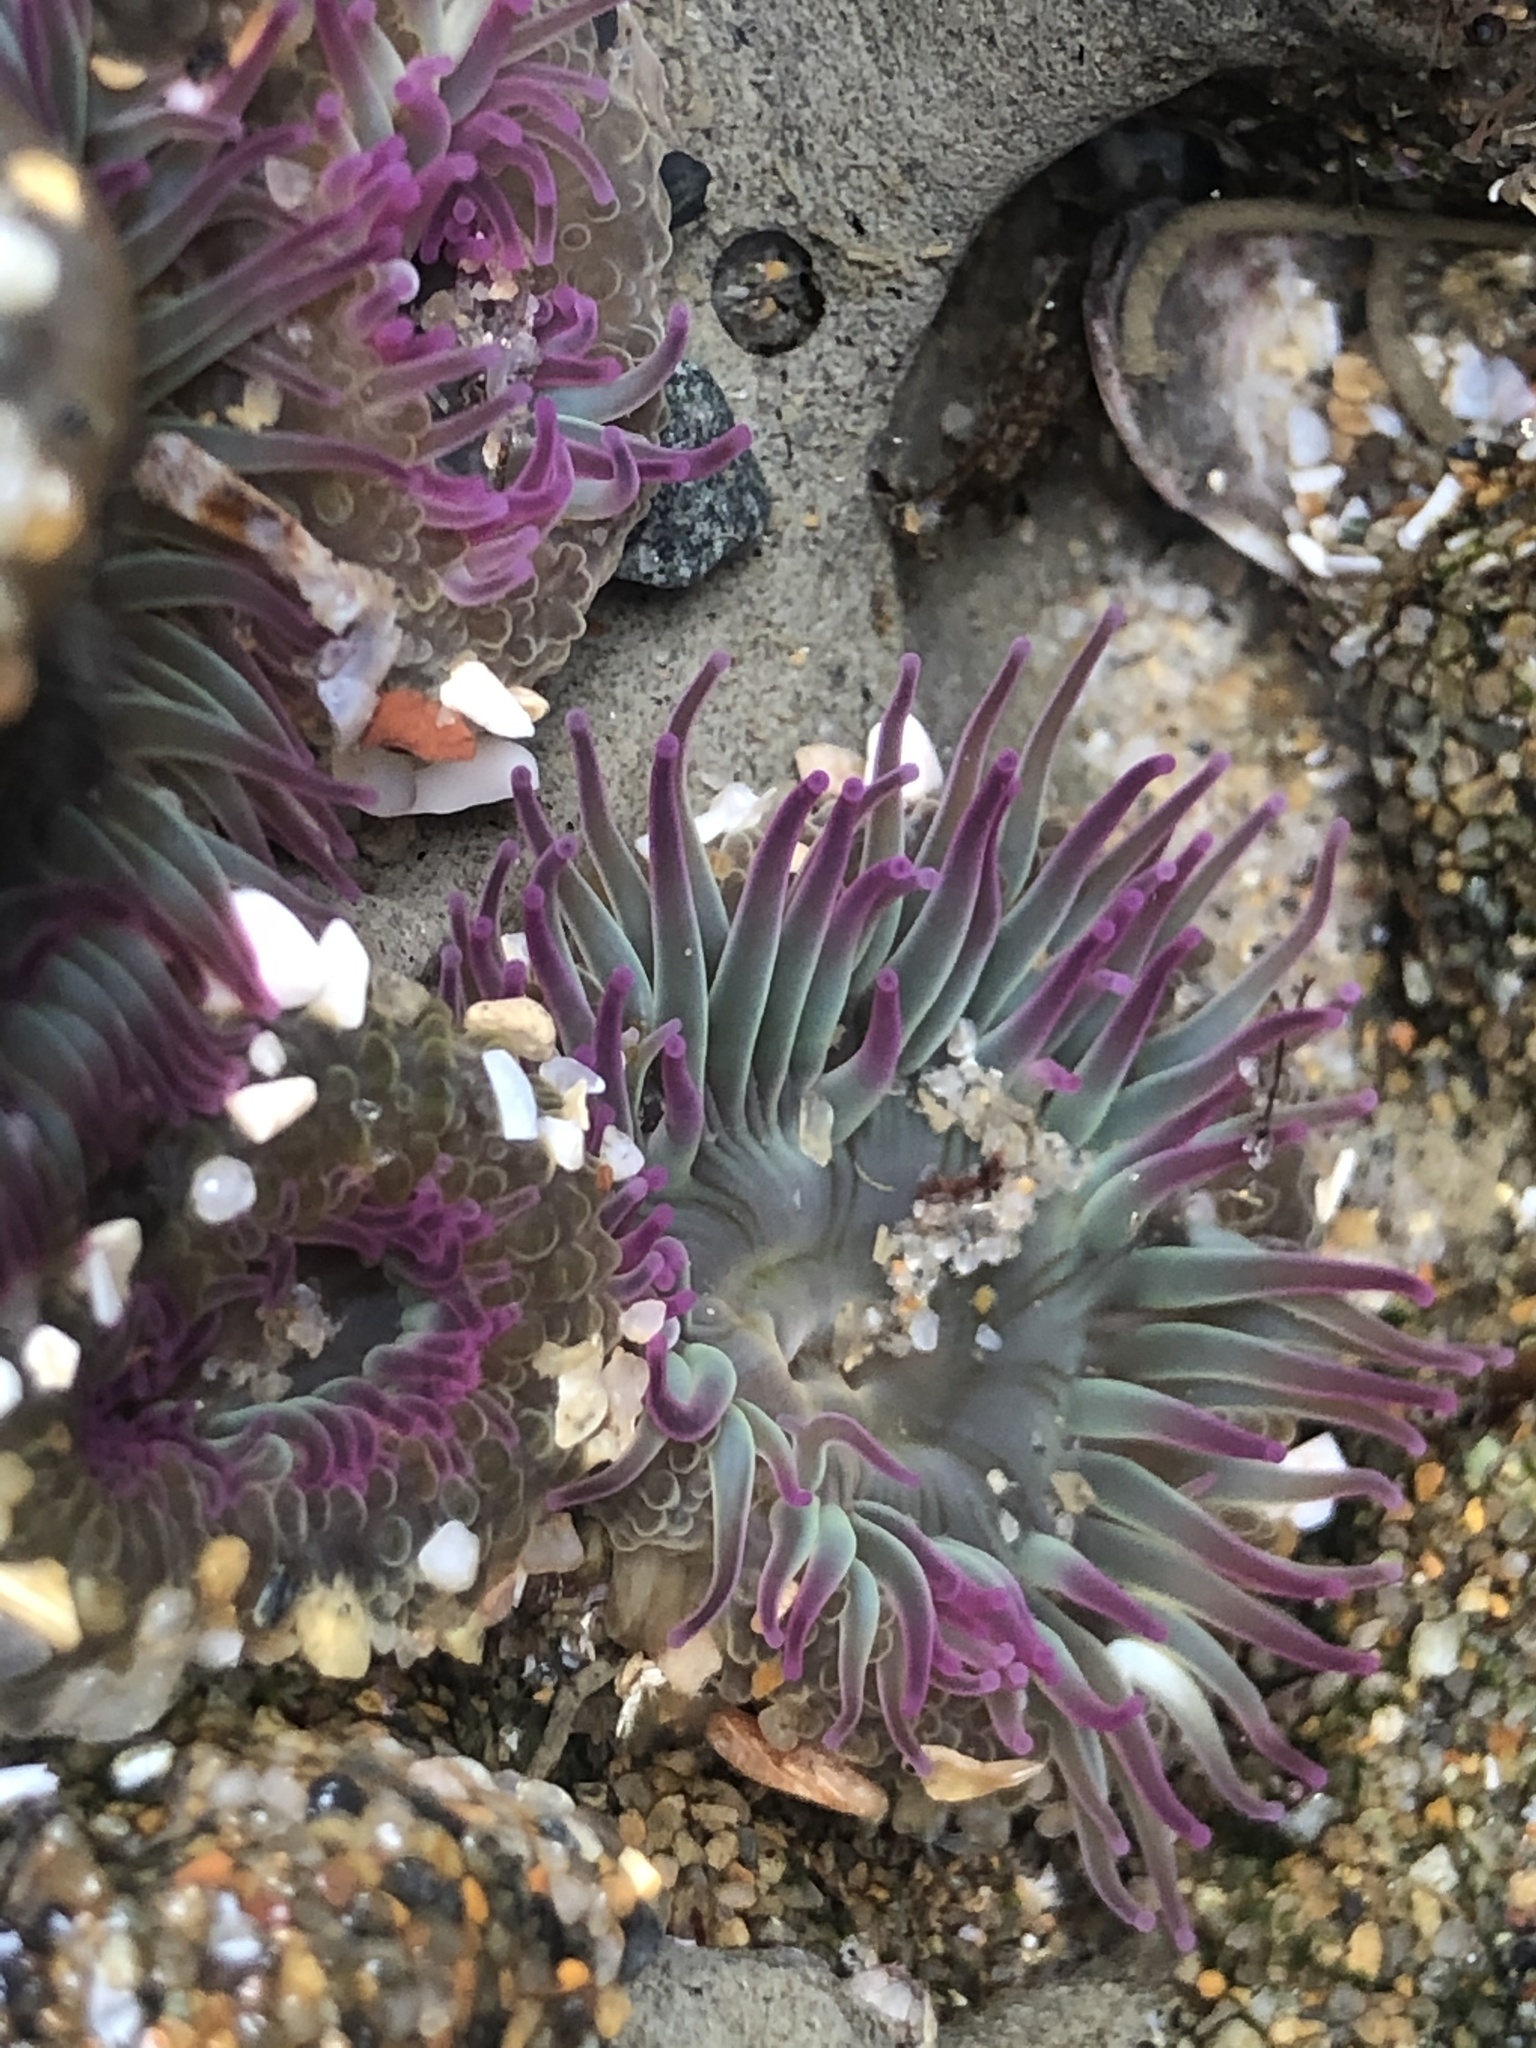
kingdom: Animalia
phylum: Cnidaria
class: Anthozoa
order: Actiniaria
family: Actiniidae
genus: Anthopleura
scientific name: Anthopleura elegantissima
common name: Clonal anemone
